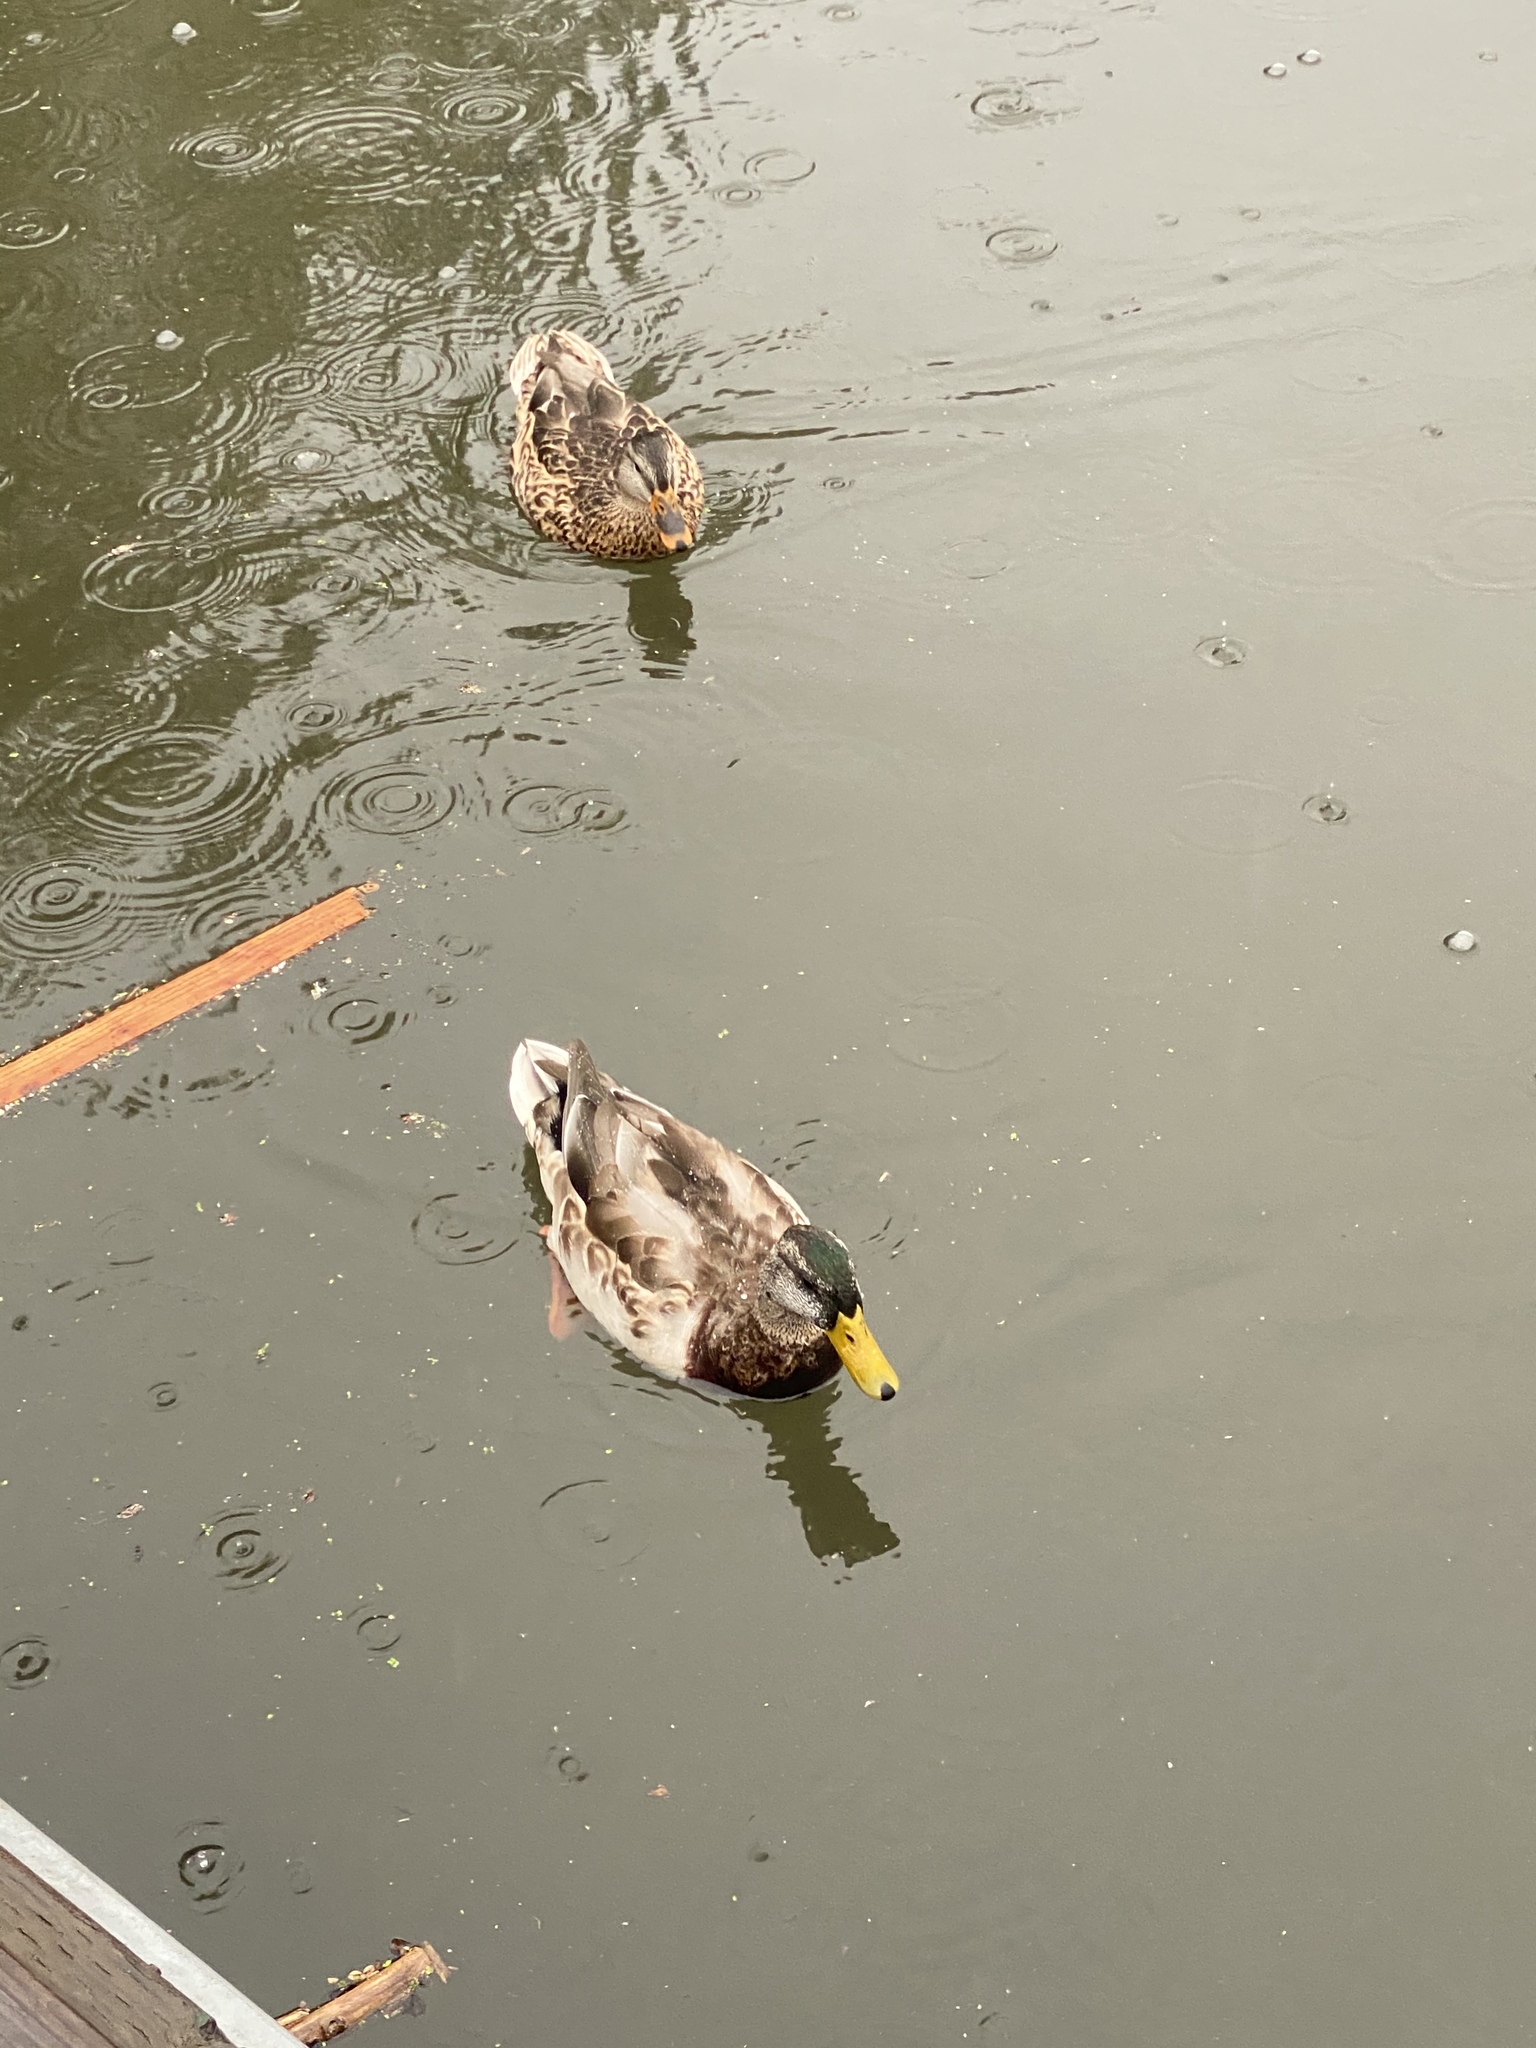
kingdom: Animalia
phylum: Chordata
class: Aves
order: Anseriformes
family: Anatidae
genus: Anas
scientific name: Anas platyrhynchos
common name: Mallard
